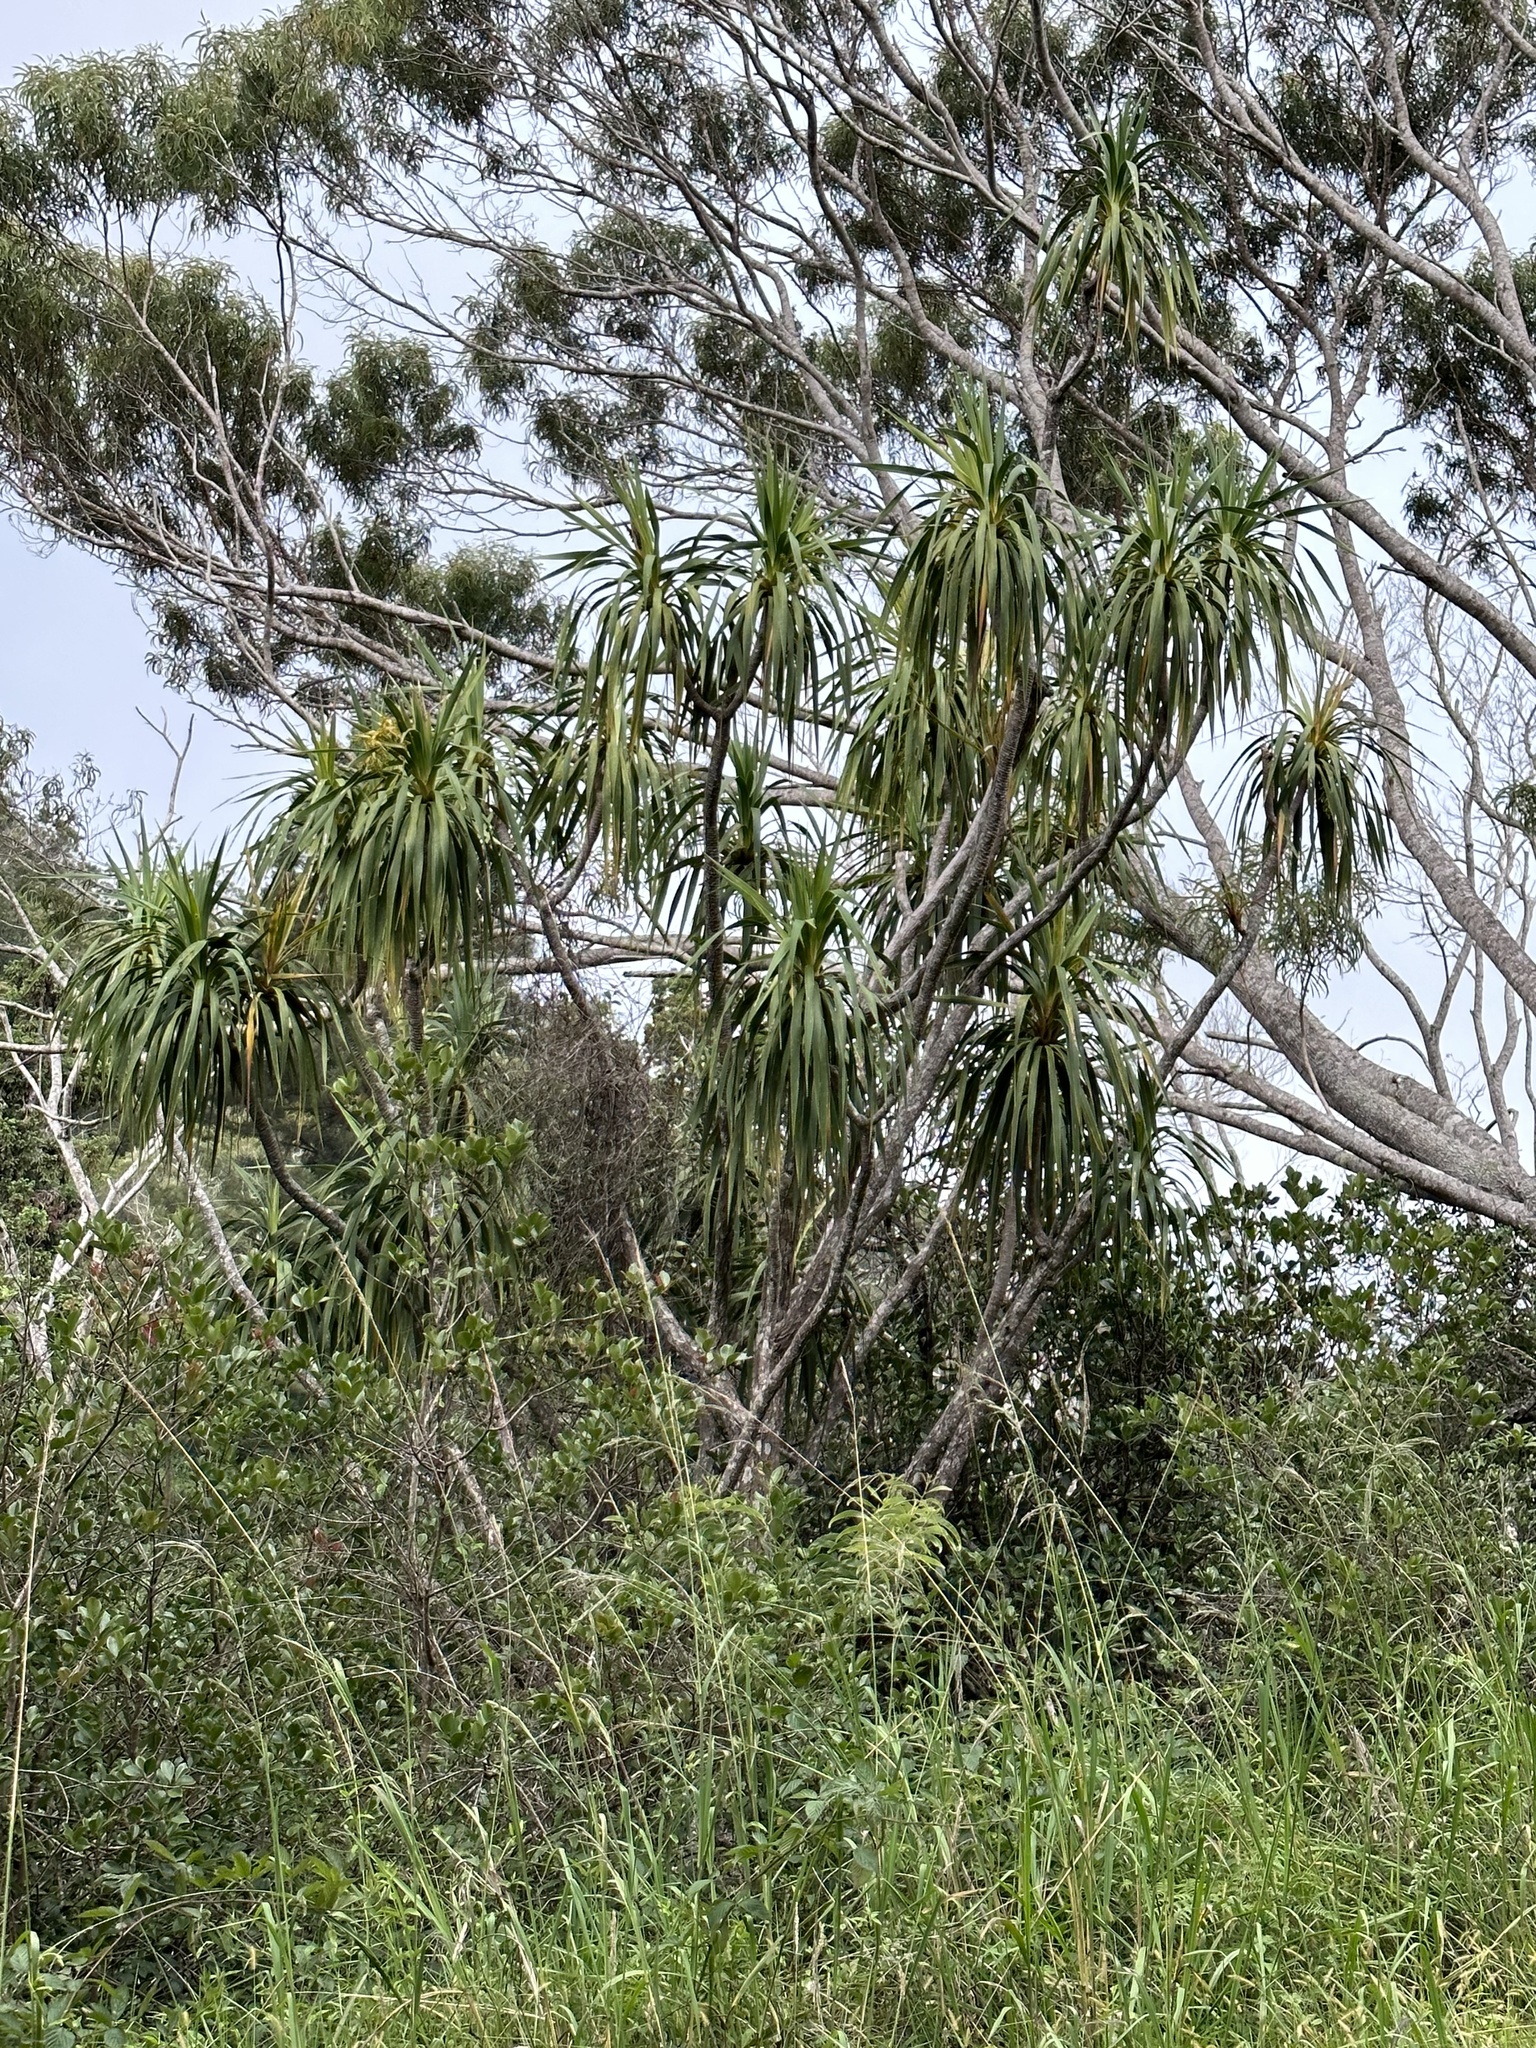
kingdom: Plantae
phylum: Tracheophyta
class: Liliopsida
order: Asparagales
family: Asparagaceae
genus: Dracaena
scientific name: Dracaena aurea
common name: Golden dracaena
